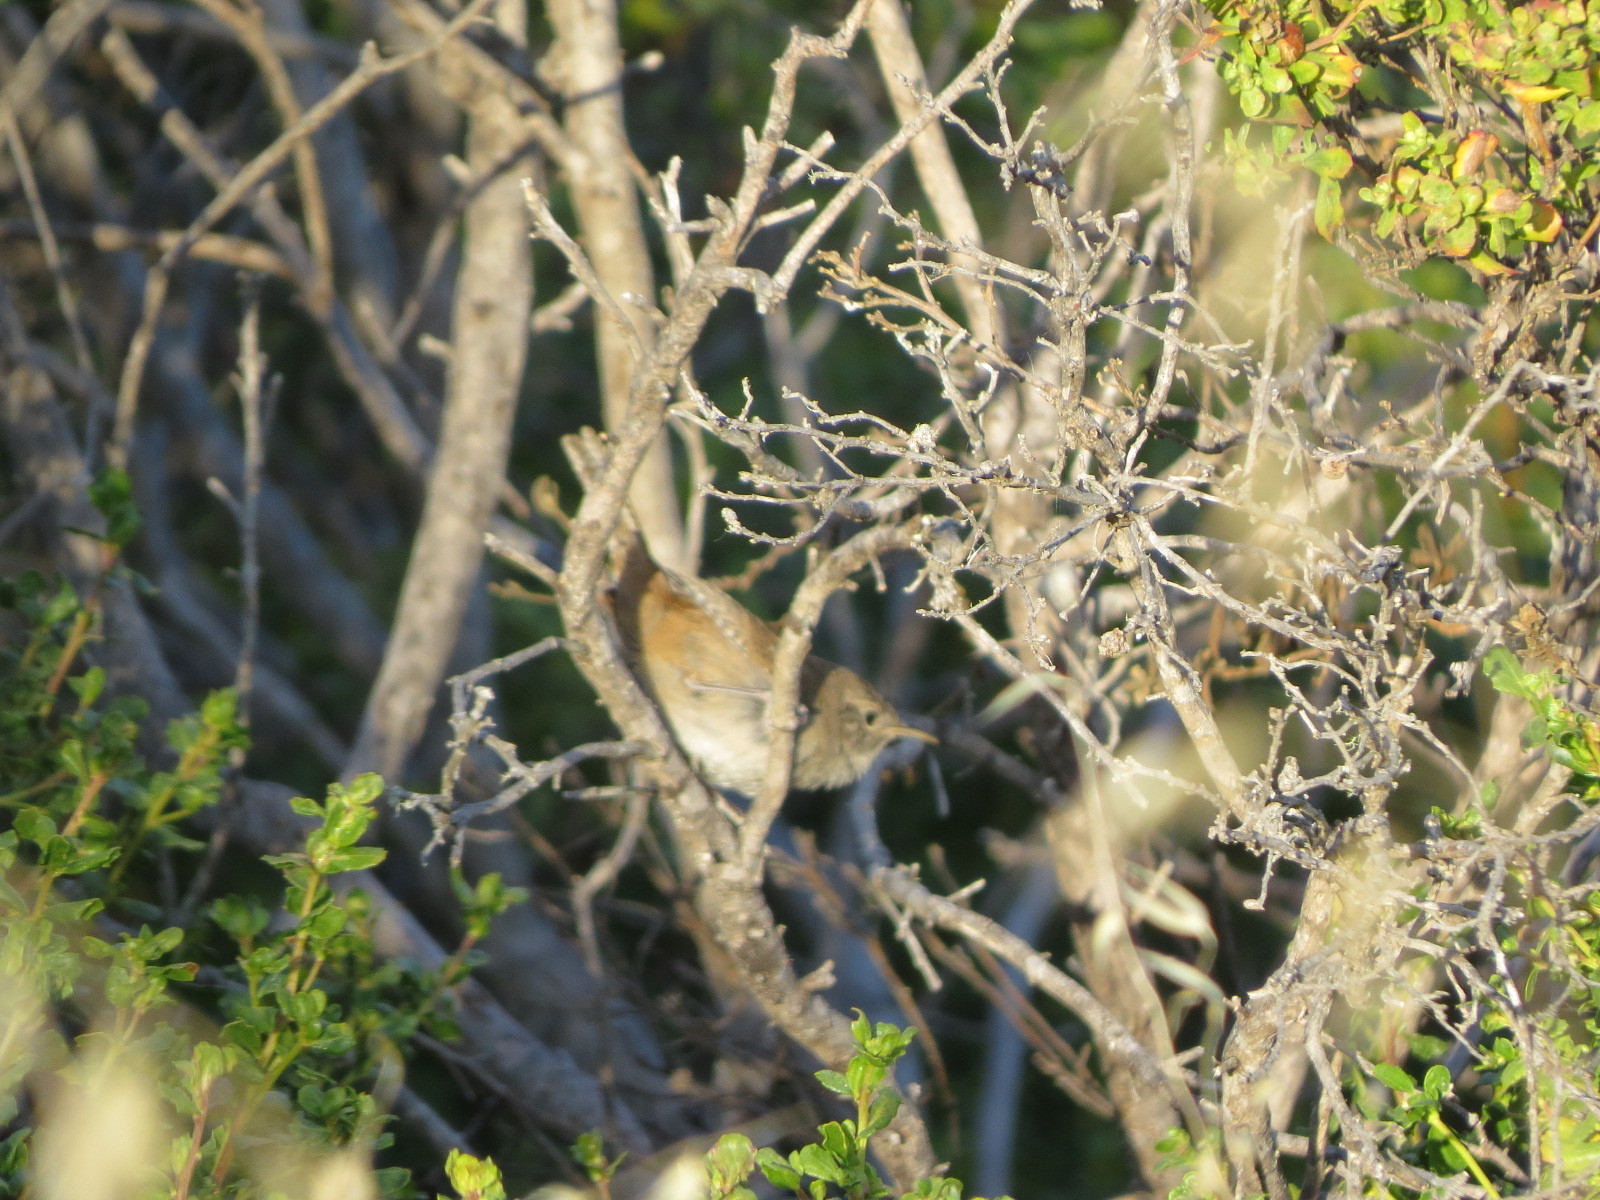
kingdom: Animalia
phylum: Chordata
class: Aves
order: Passeriformes
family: Troglodytidae
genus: Troglodytes
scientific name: Troglodytes aedon
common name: House wren
